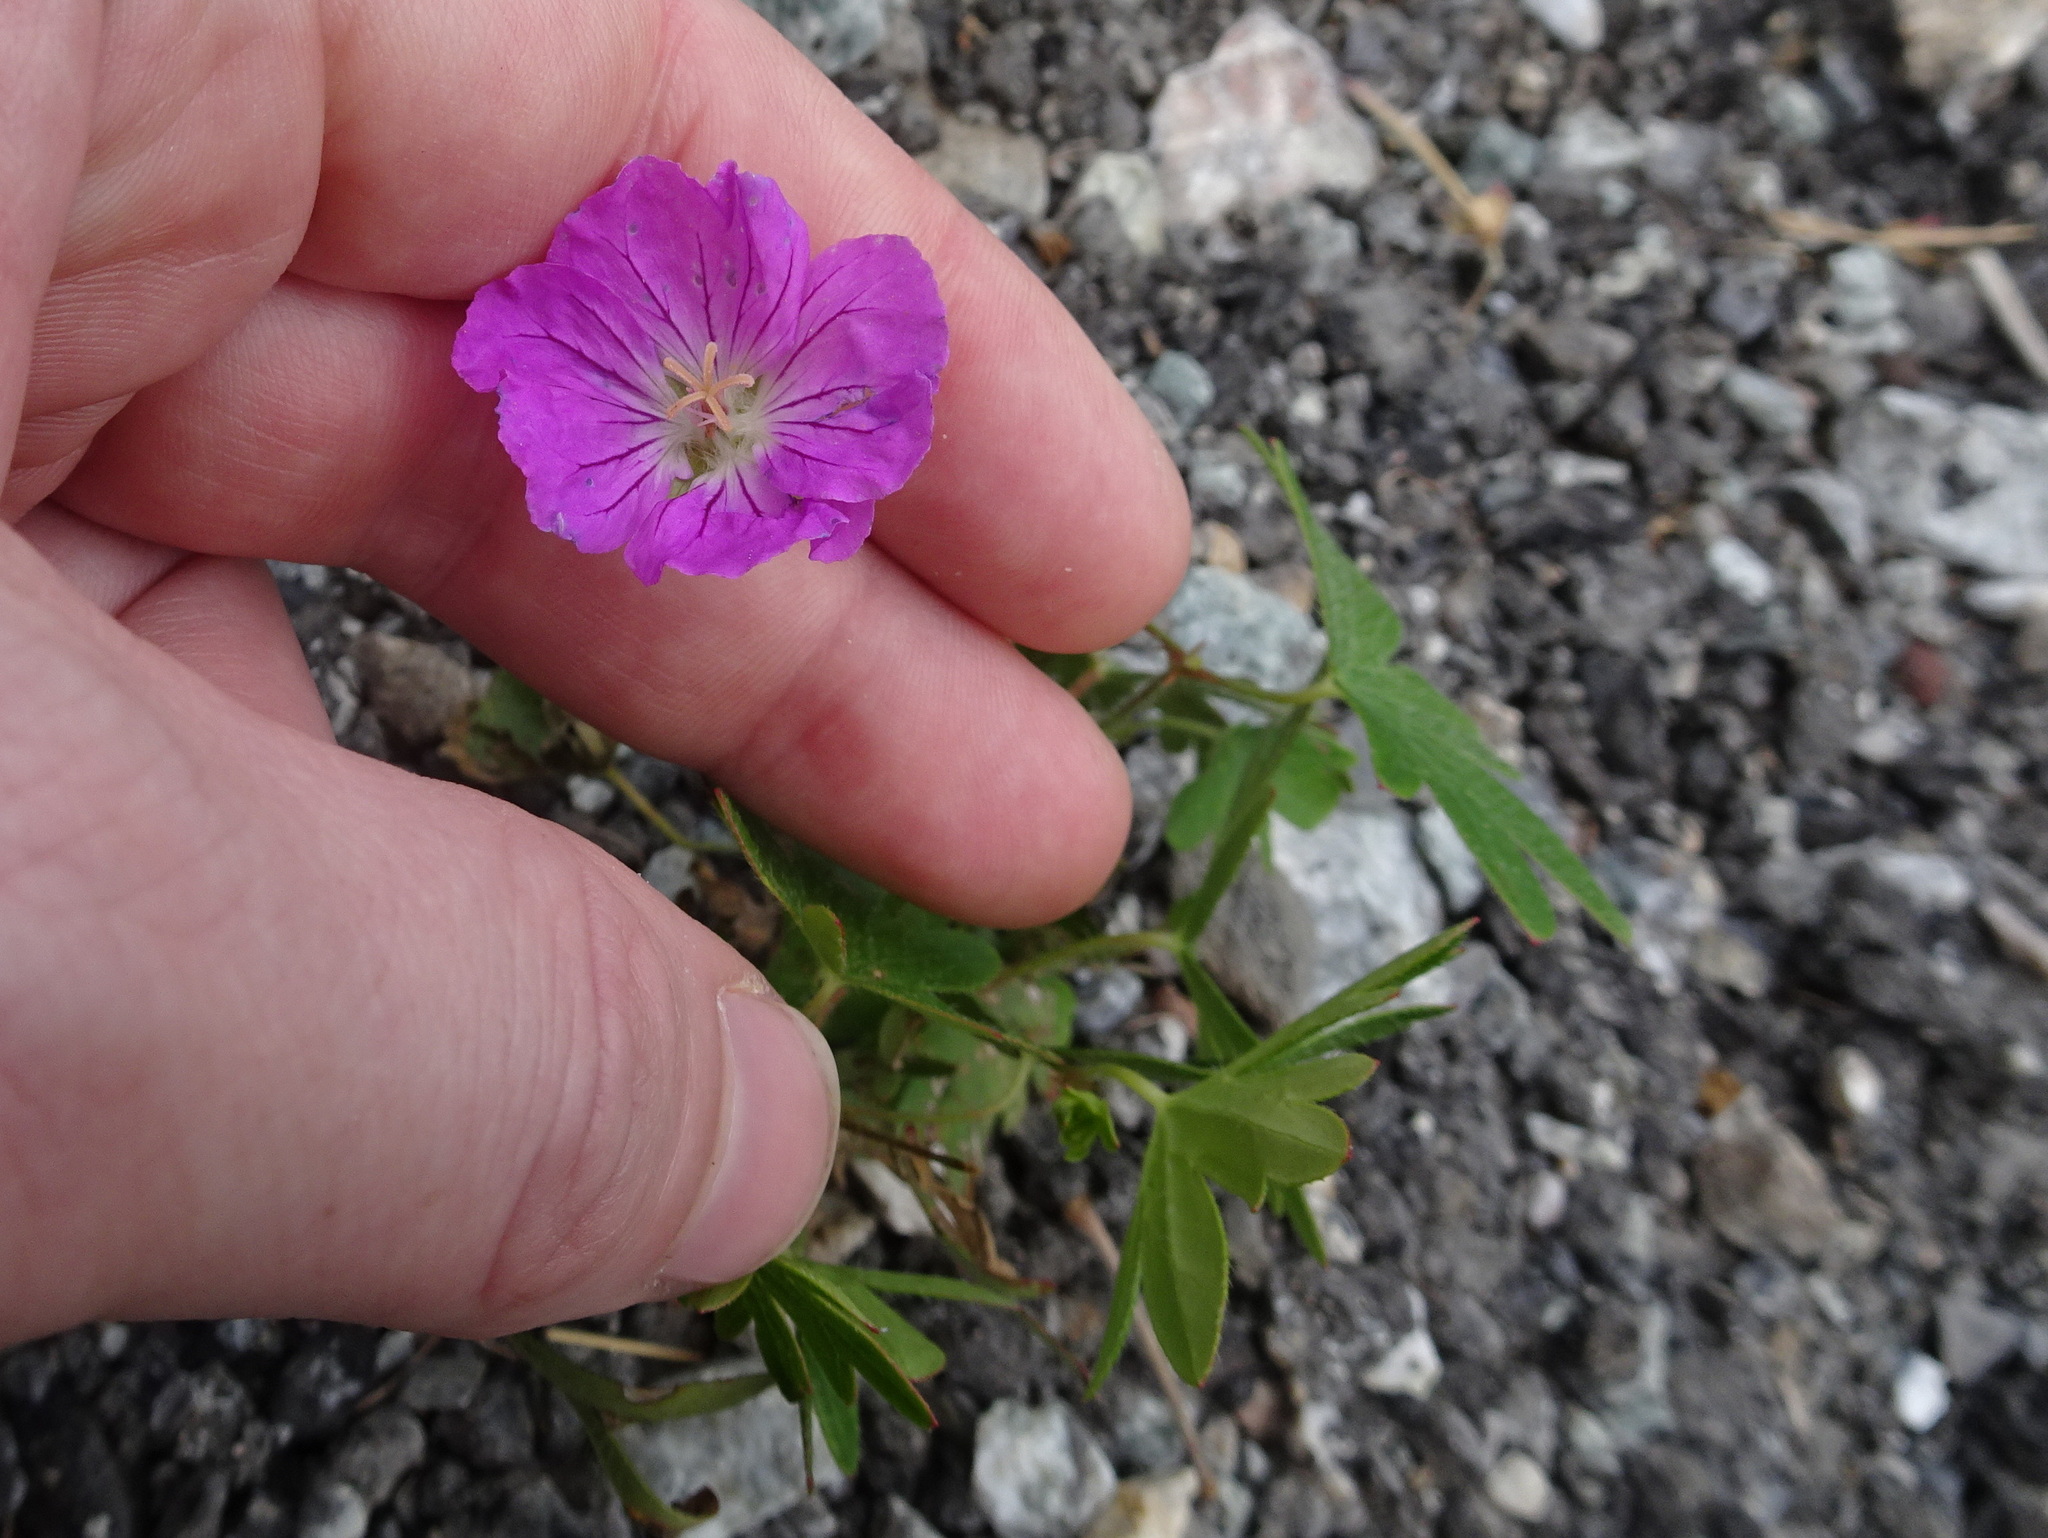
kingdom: Plantae
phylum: Tracheophyta
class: Magnoliopsida
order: Geraniales
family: Geraniaceae
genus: Geranium
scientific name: Geranium sanguineum
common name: Bloody crane's-bill
